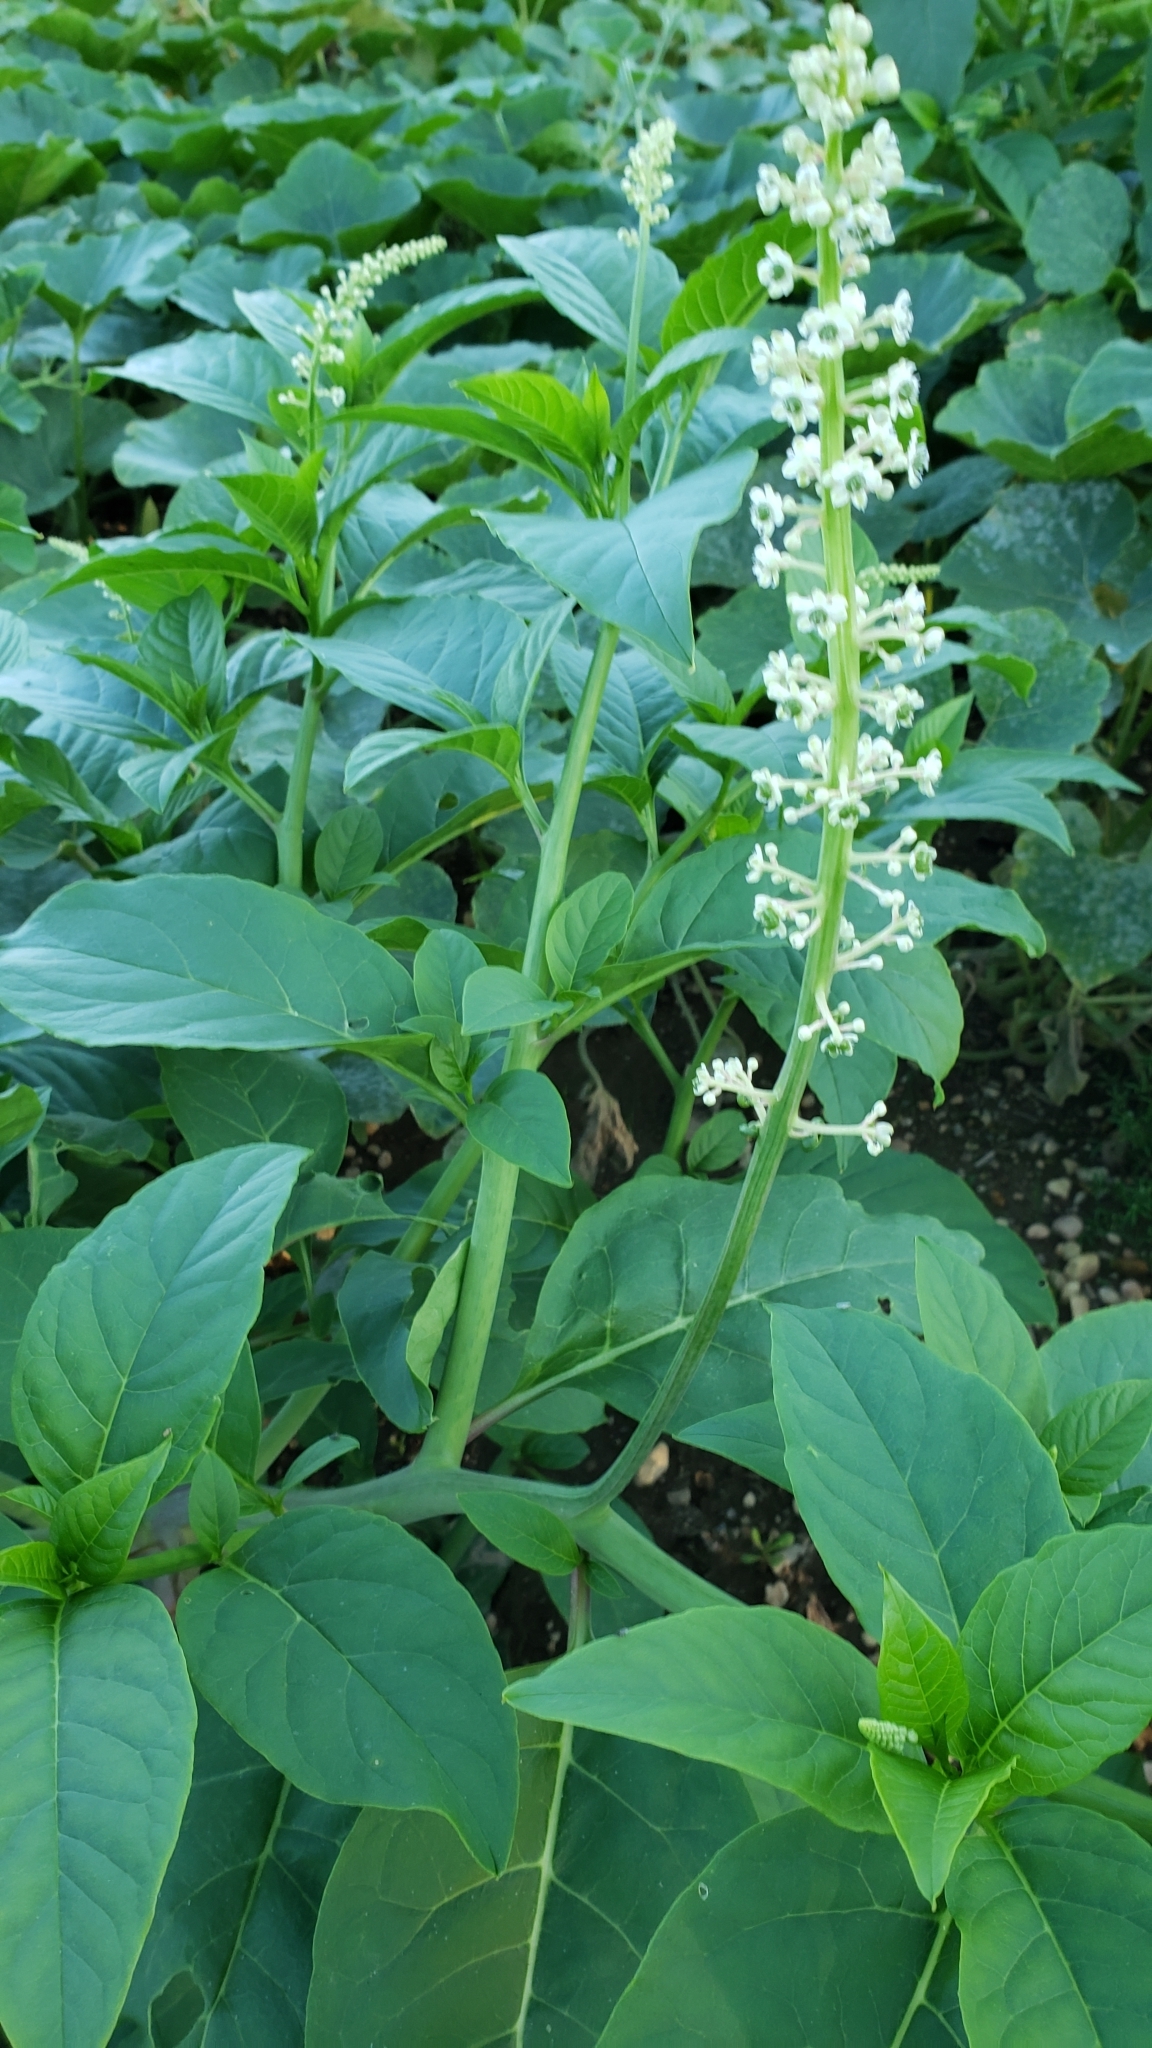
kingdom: Plantae
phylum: Tracheophyta
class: Magnoliopsida
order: Caryophyllales
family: Phytolaccaceae
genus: Phytolacca
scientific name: Phytolacca americana
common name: American pokeweed
